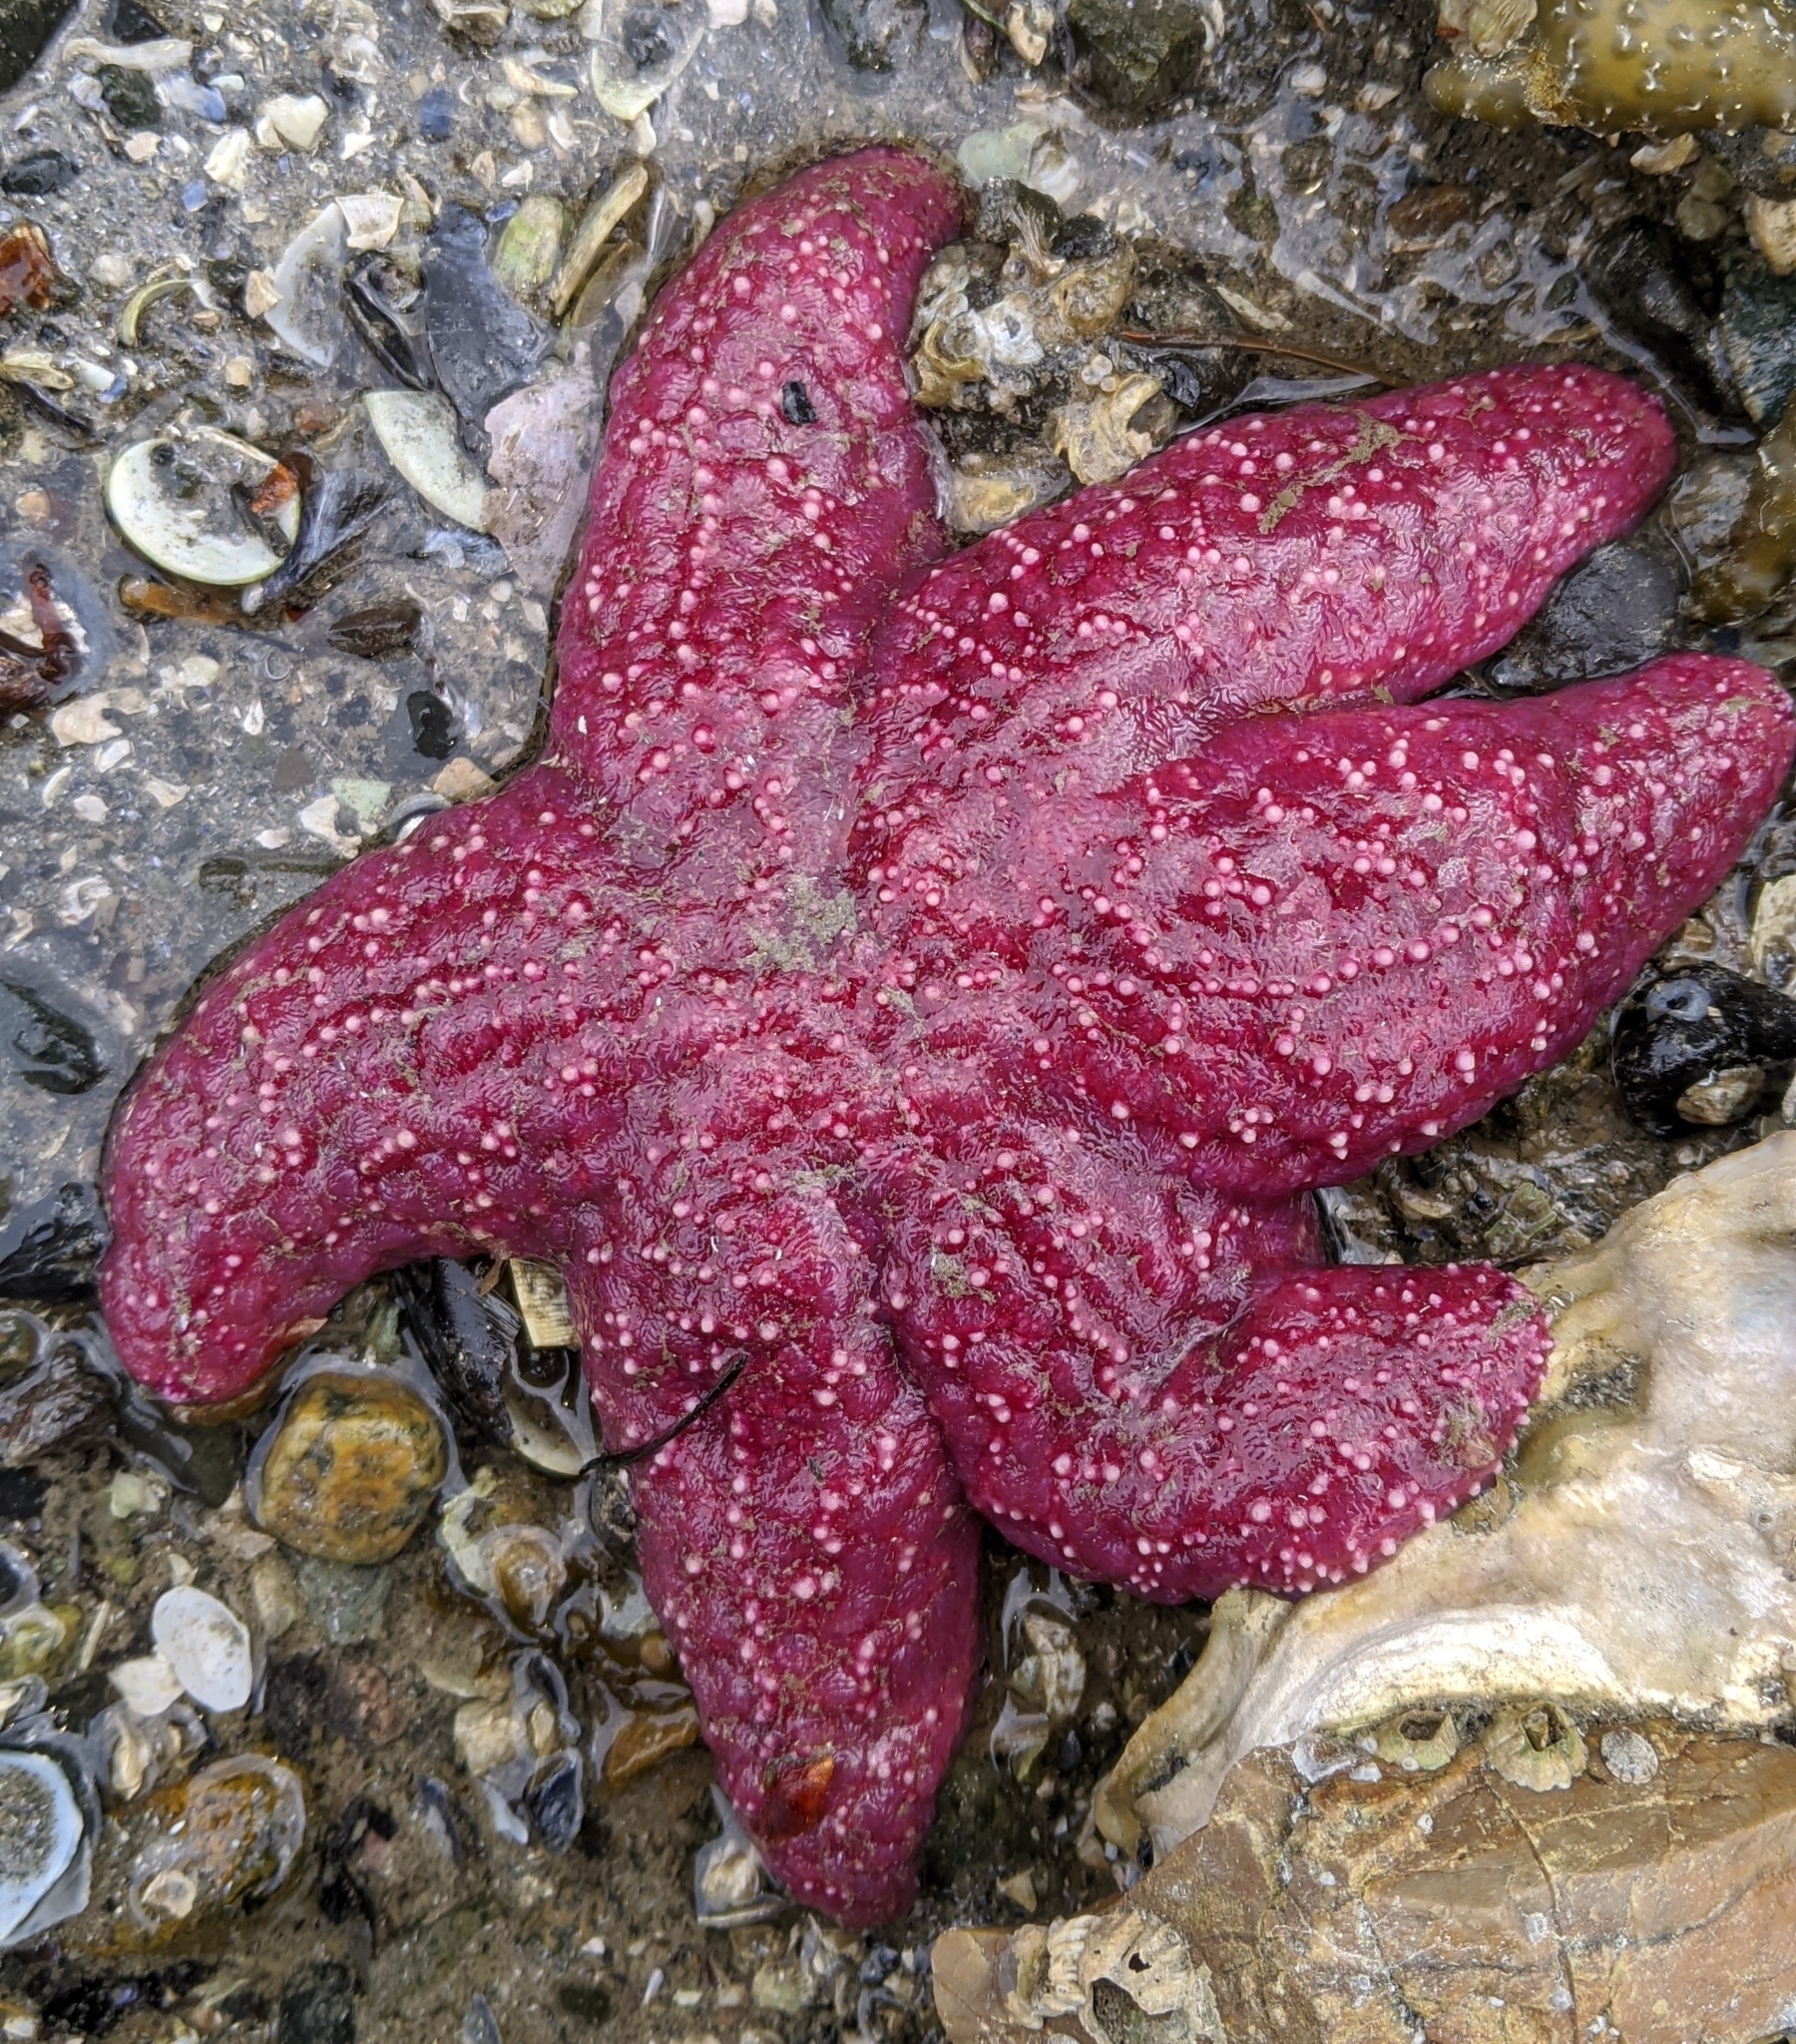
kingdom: Animalia
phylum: Echinodermata
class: Asteroidea
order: Forcipulatida
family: Asteriidae
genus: Pisaster
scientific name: Pisaster ochraceus
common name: Ochre stars
